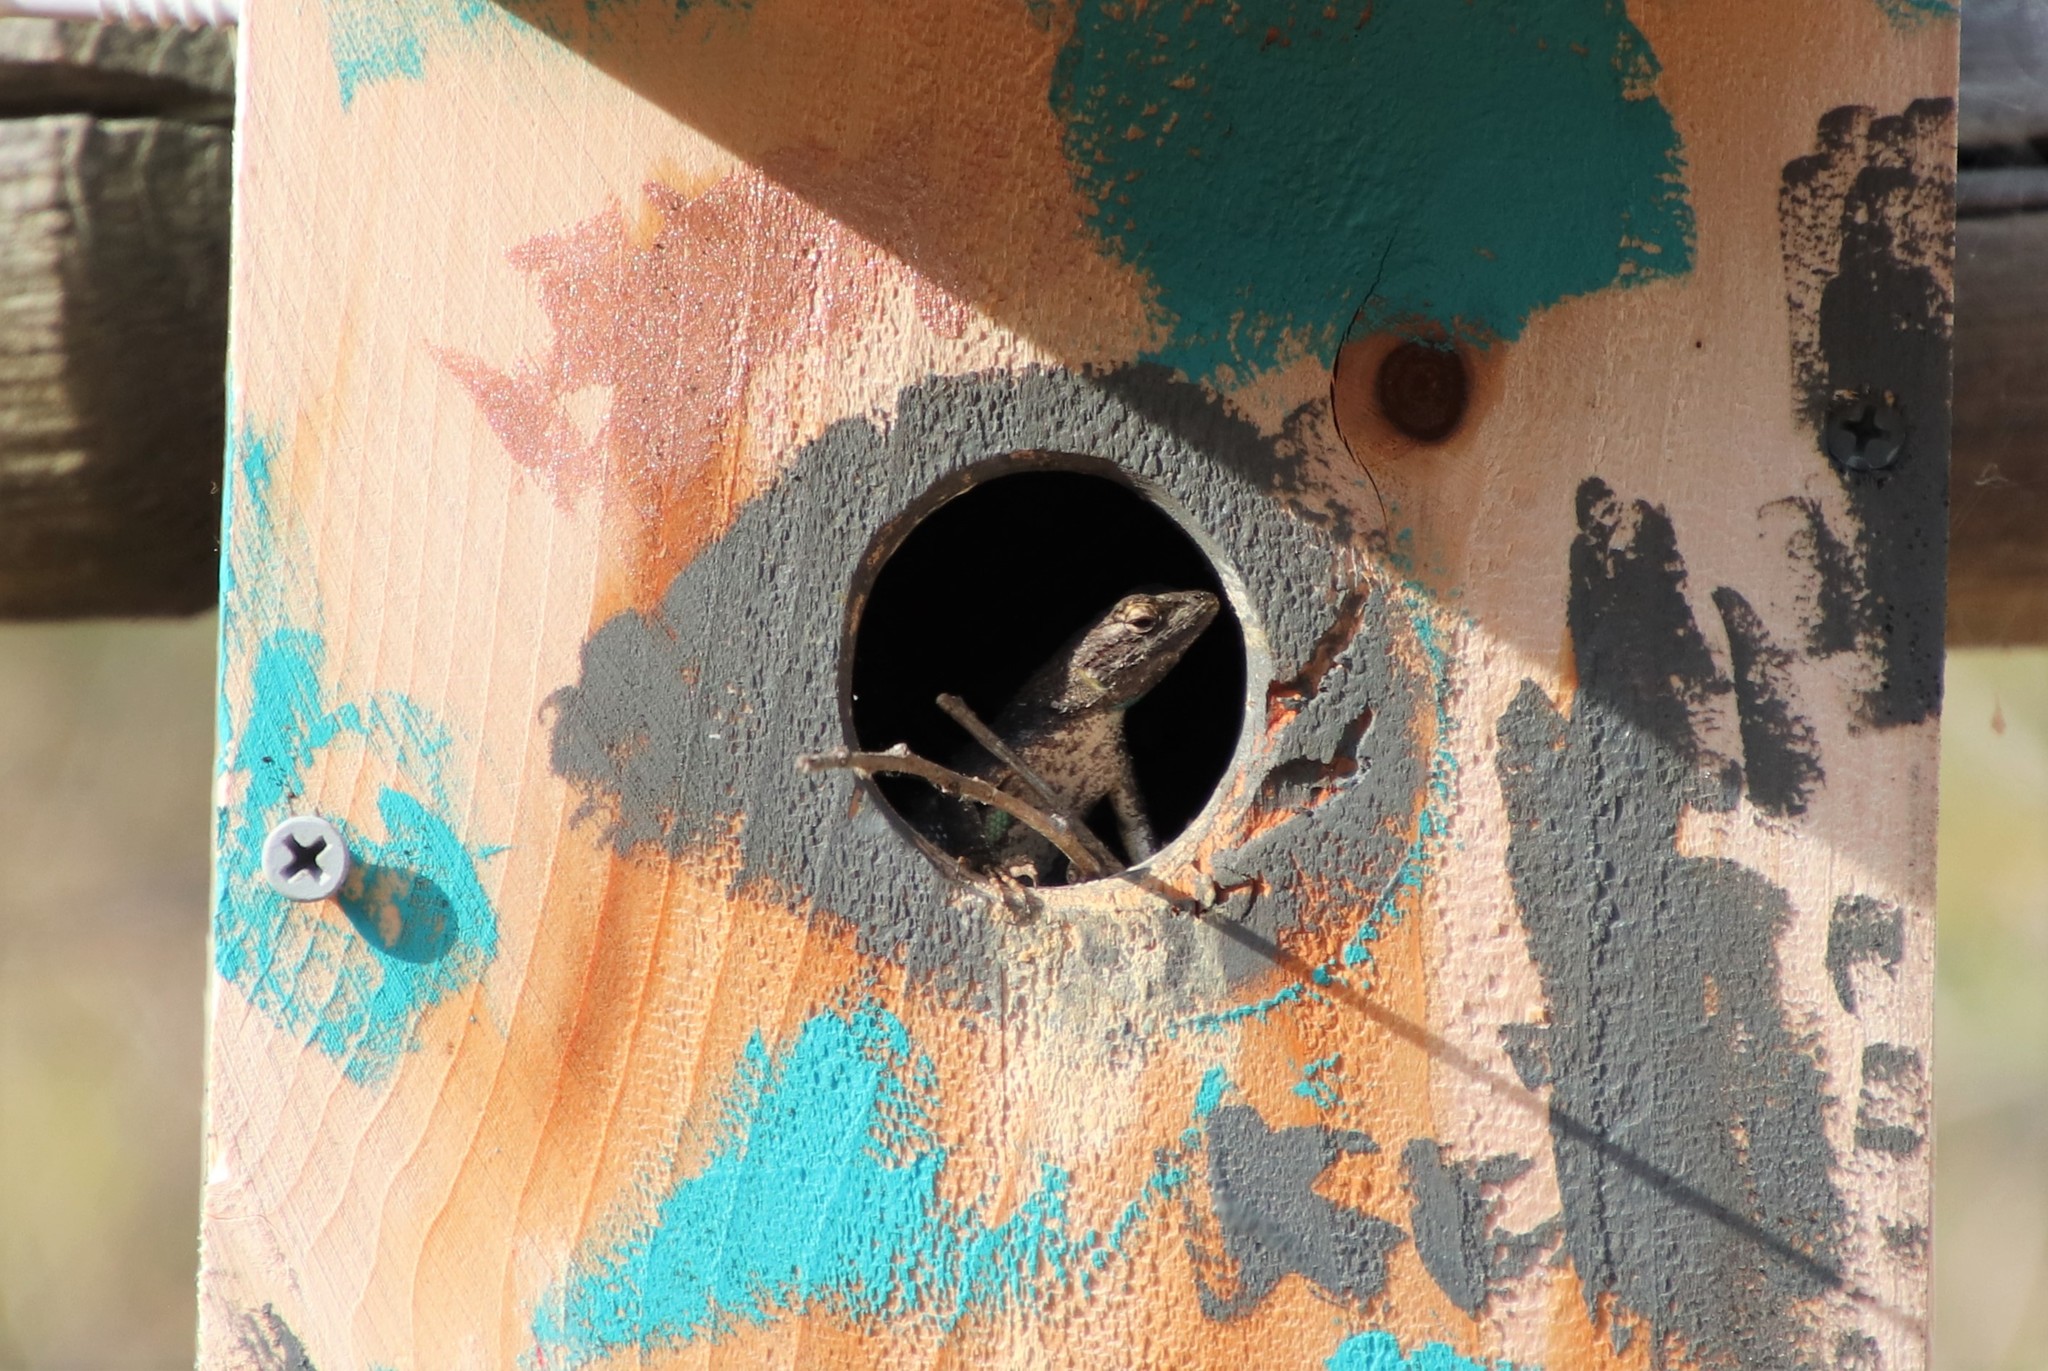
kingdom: Animalia
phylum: Chordata
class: Squamata
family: Phrynosomatidae
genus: Sceloporus
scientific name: Sceloporus occidentalis
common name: Western fence lizard
